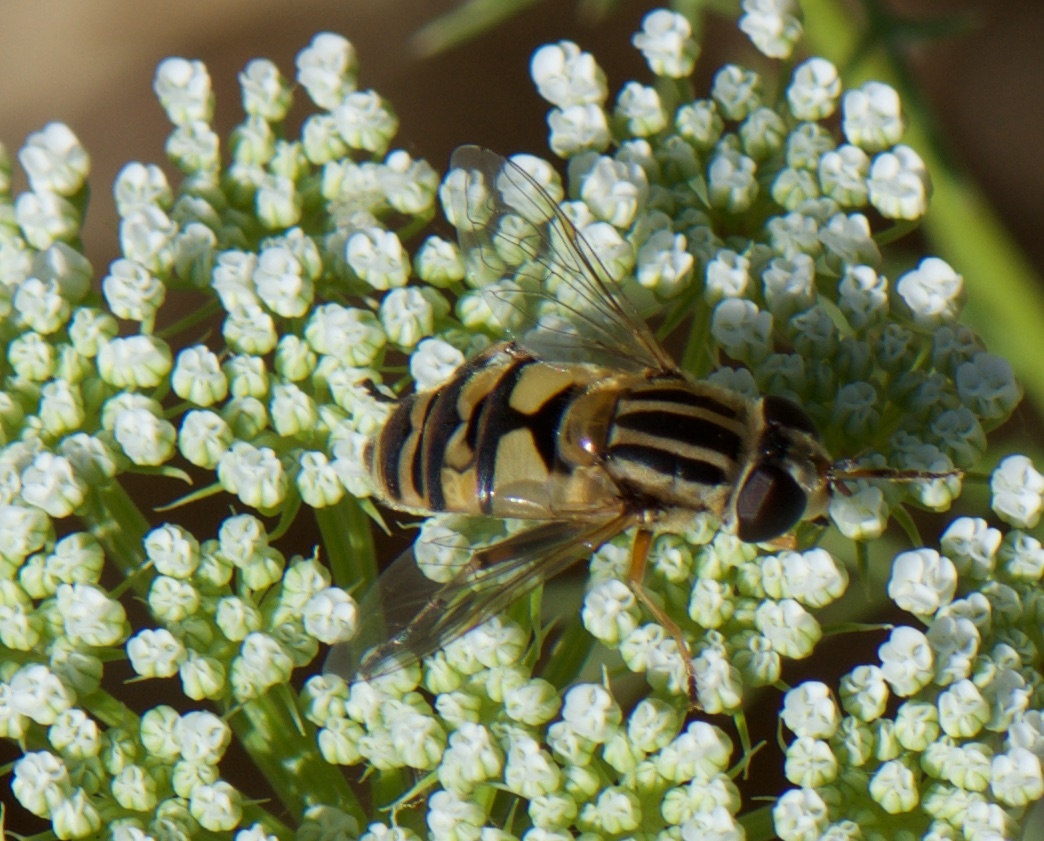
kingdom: Animalia
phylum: Arthropoda
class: Insecta
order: Diptera
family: Syrphidae
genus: Helophilus
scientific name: Helophilus latifrons
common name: Broad-headed marsh fly
